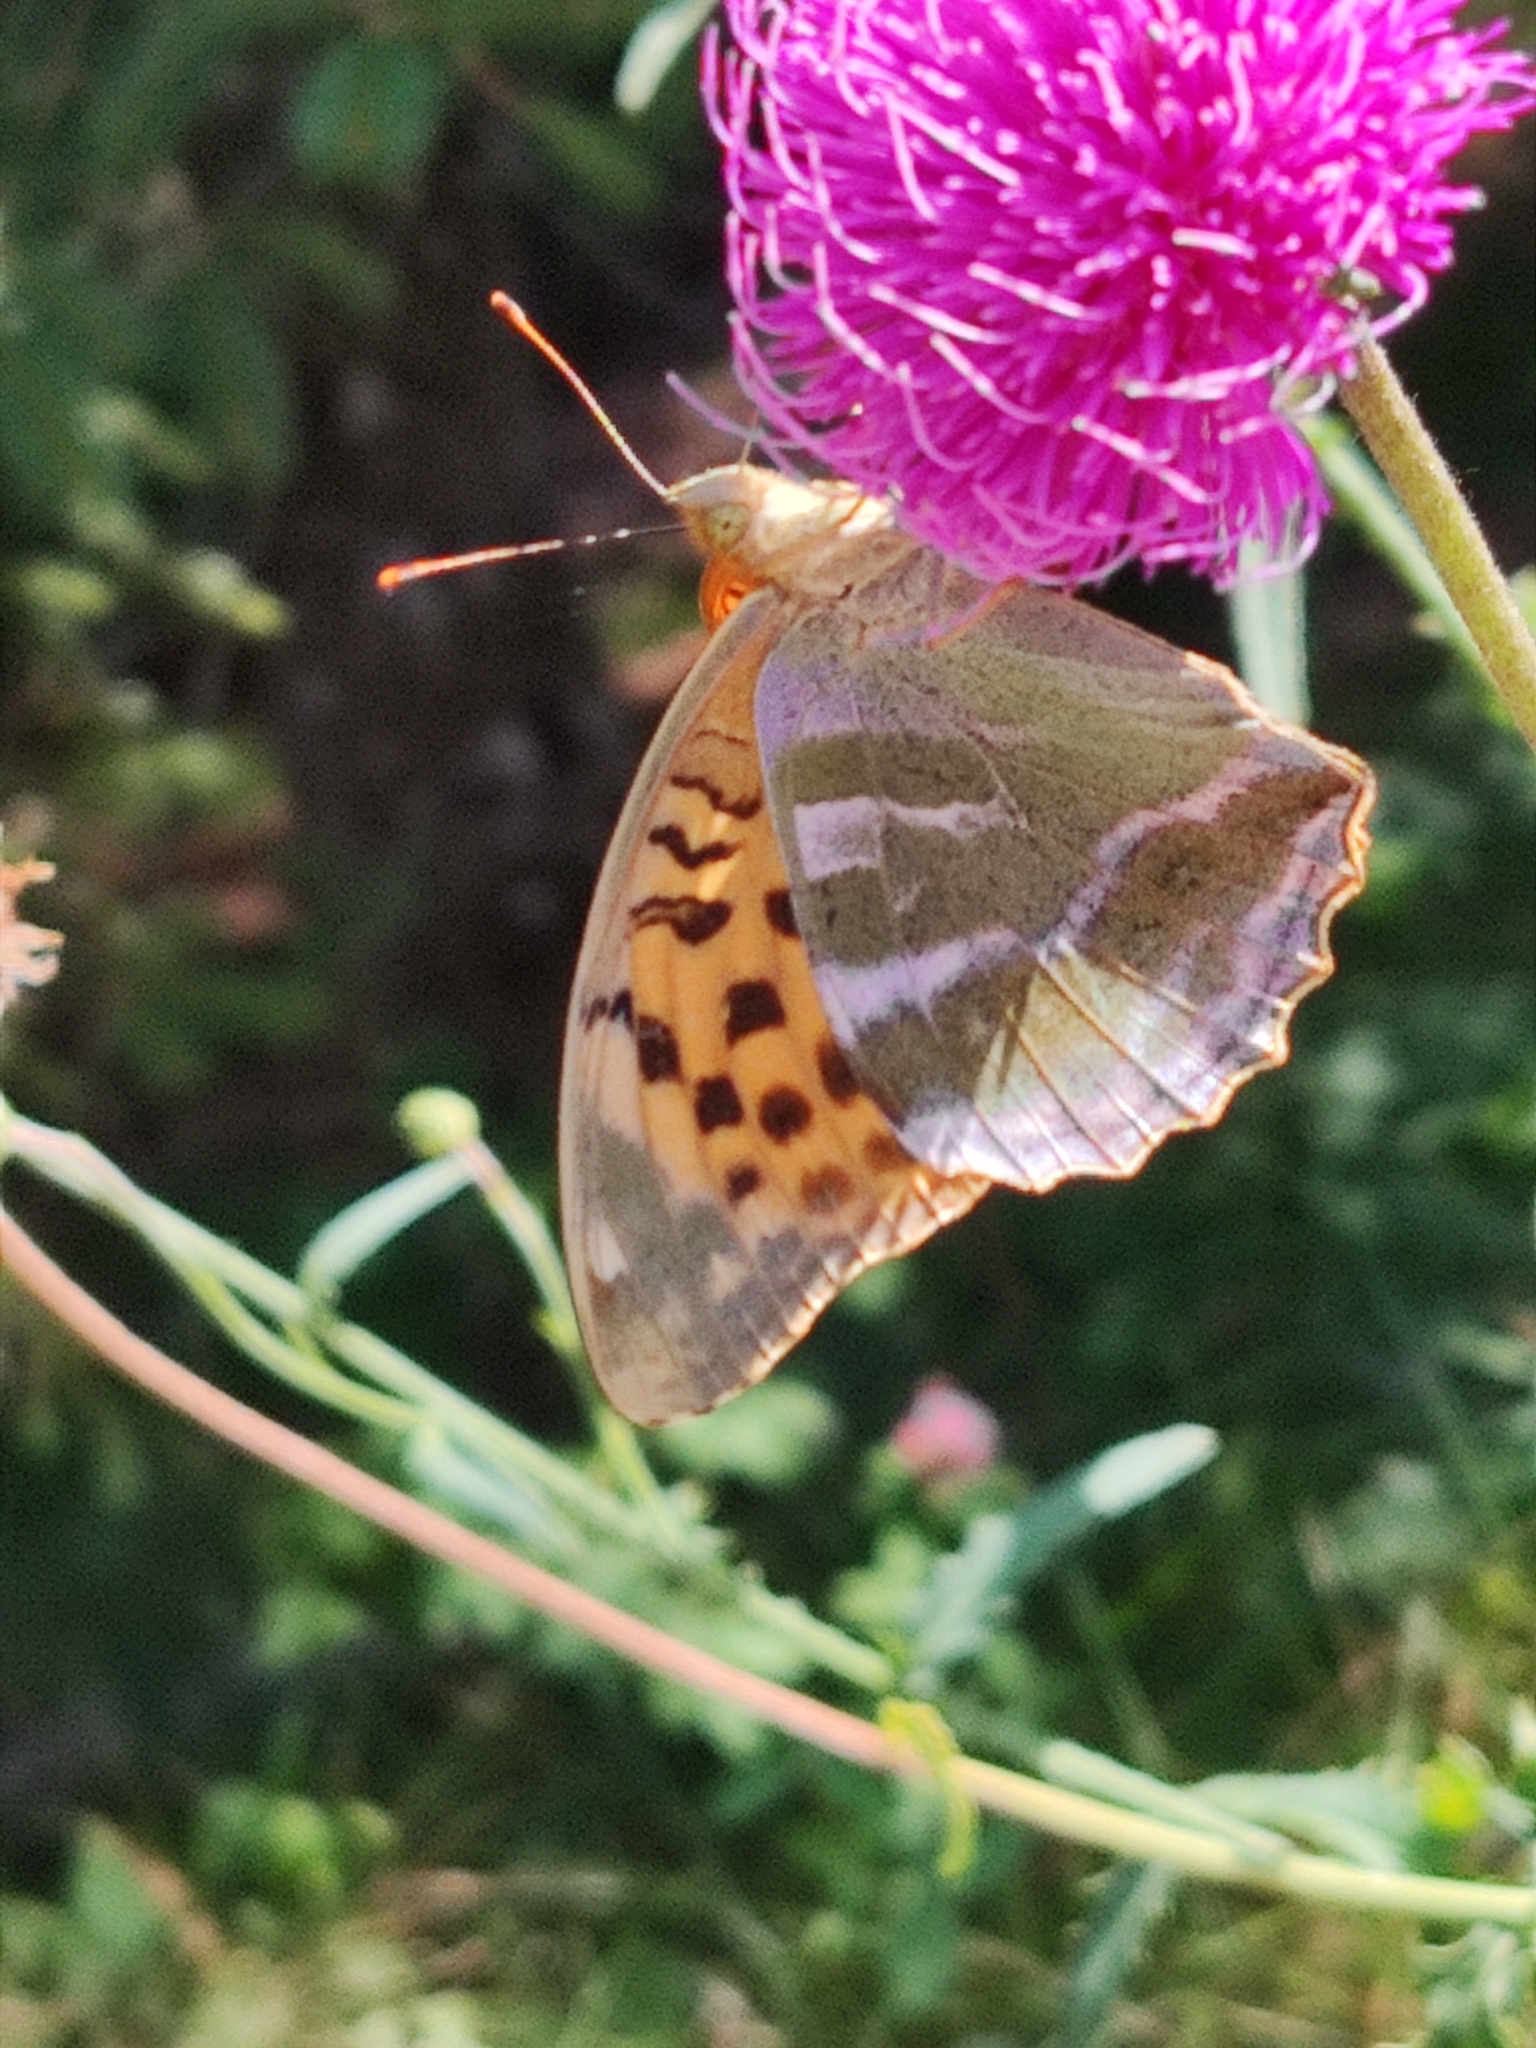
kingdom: Animalia
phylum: Arthropoda
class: Insecta
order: Lepidoptera
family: Nymphalidae
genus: Argynnis
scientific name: Argynnis paphia
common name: Silver-washed fritillary
